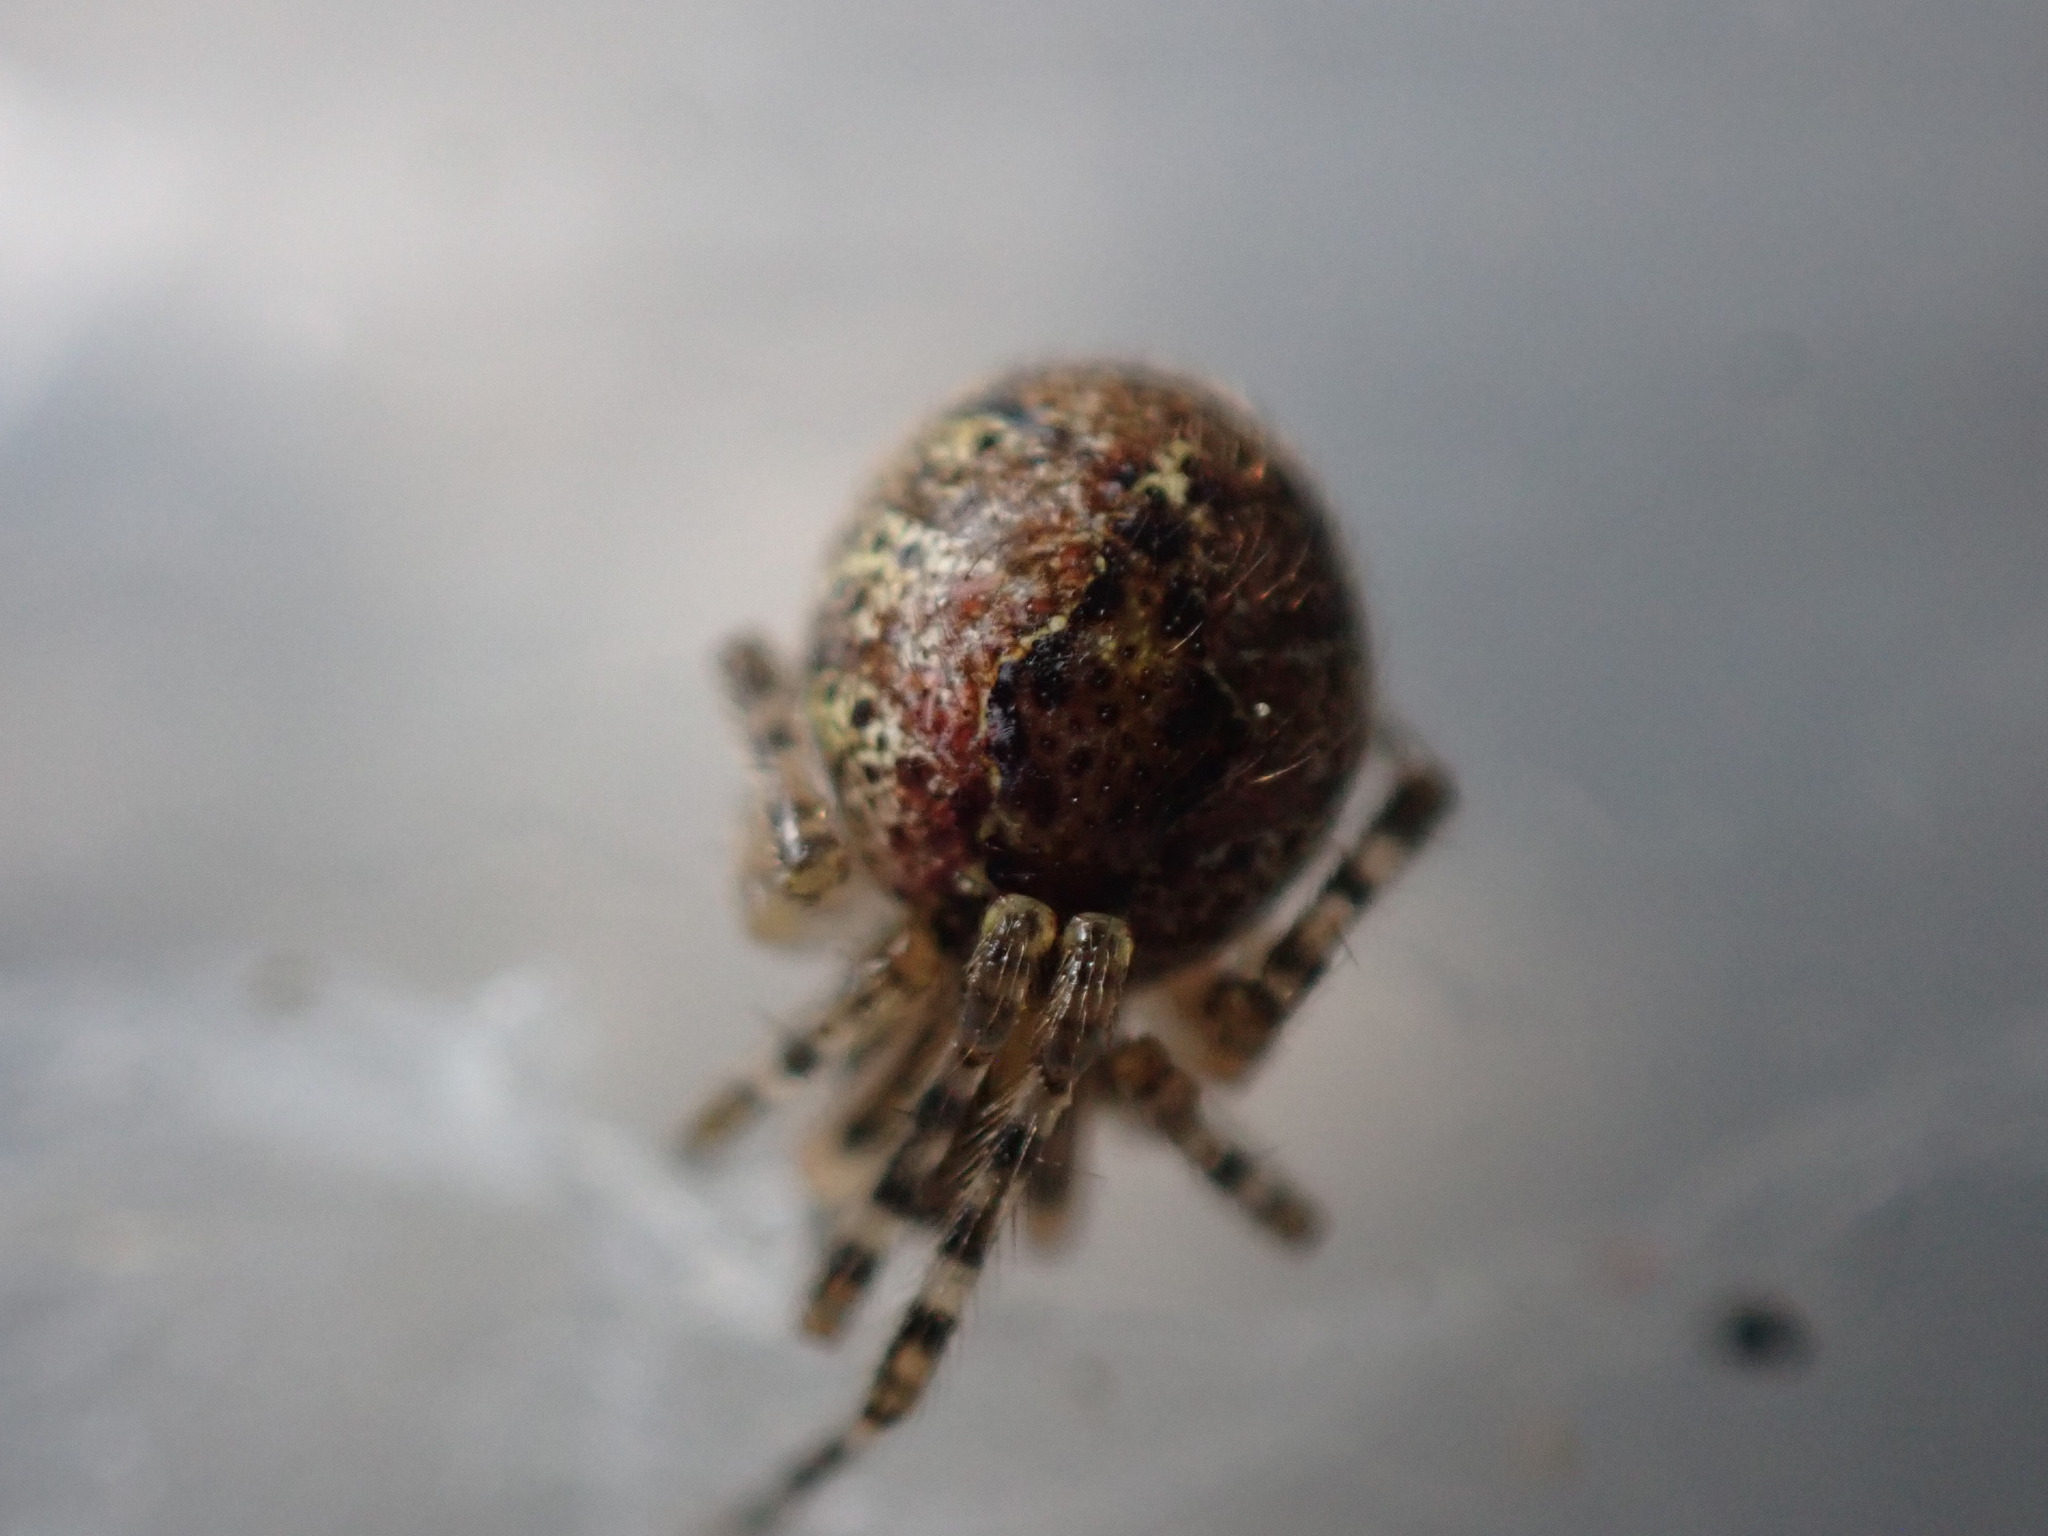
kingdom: Animalia
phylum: Arthropoda
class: Arachnida
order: Araneae
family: Theridiidae
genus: Cryptachaea
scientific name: Cryptachaea veruculata
